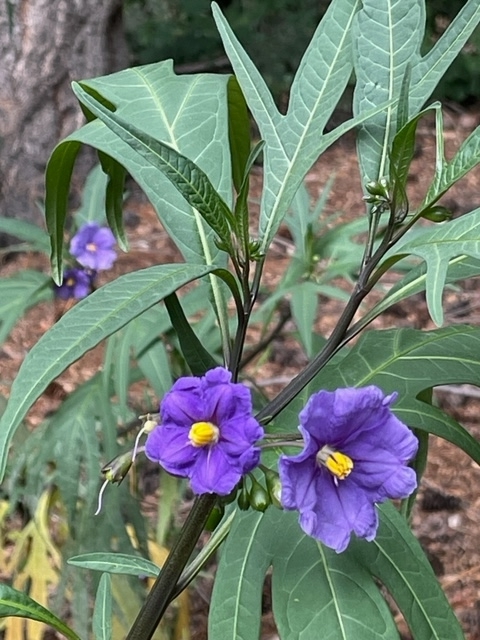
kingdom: Plantae
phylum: Tracheophyta
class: Magnoliopsida
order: Solanales
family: Solanaceae
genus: Solanum
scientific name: Solanum laciniatum
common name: Kangaroo-apple
